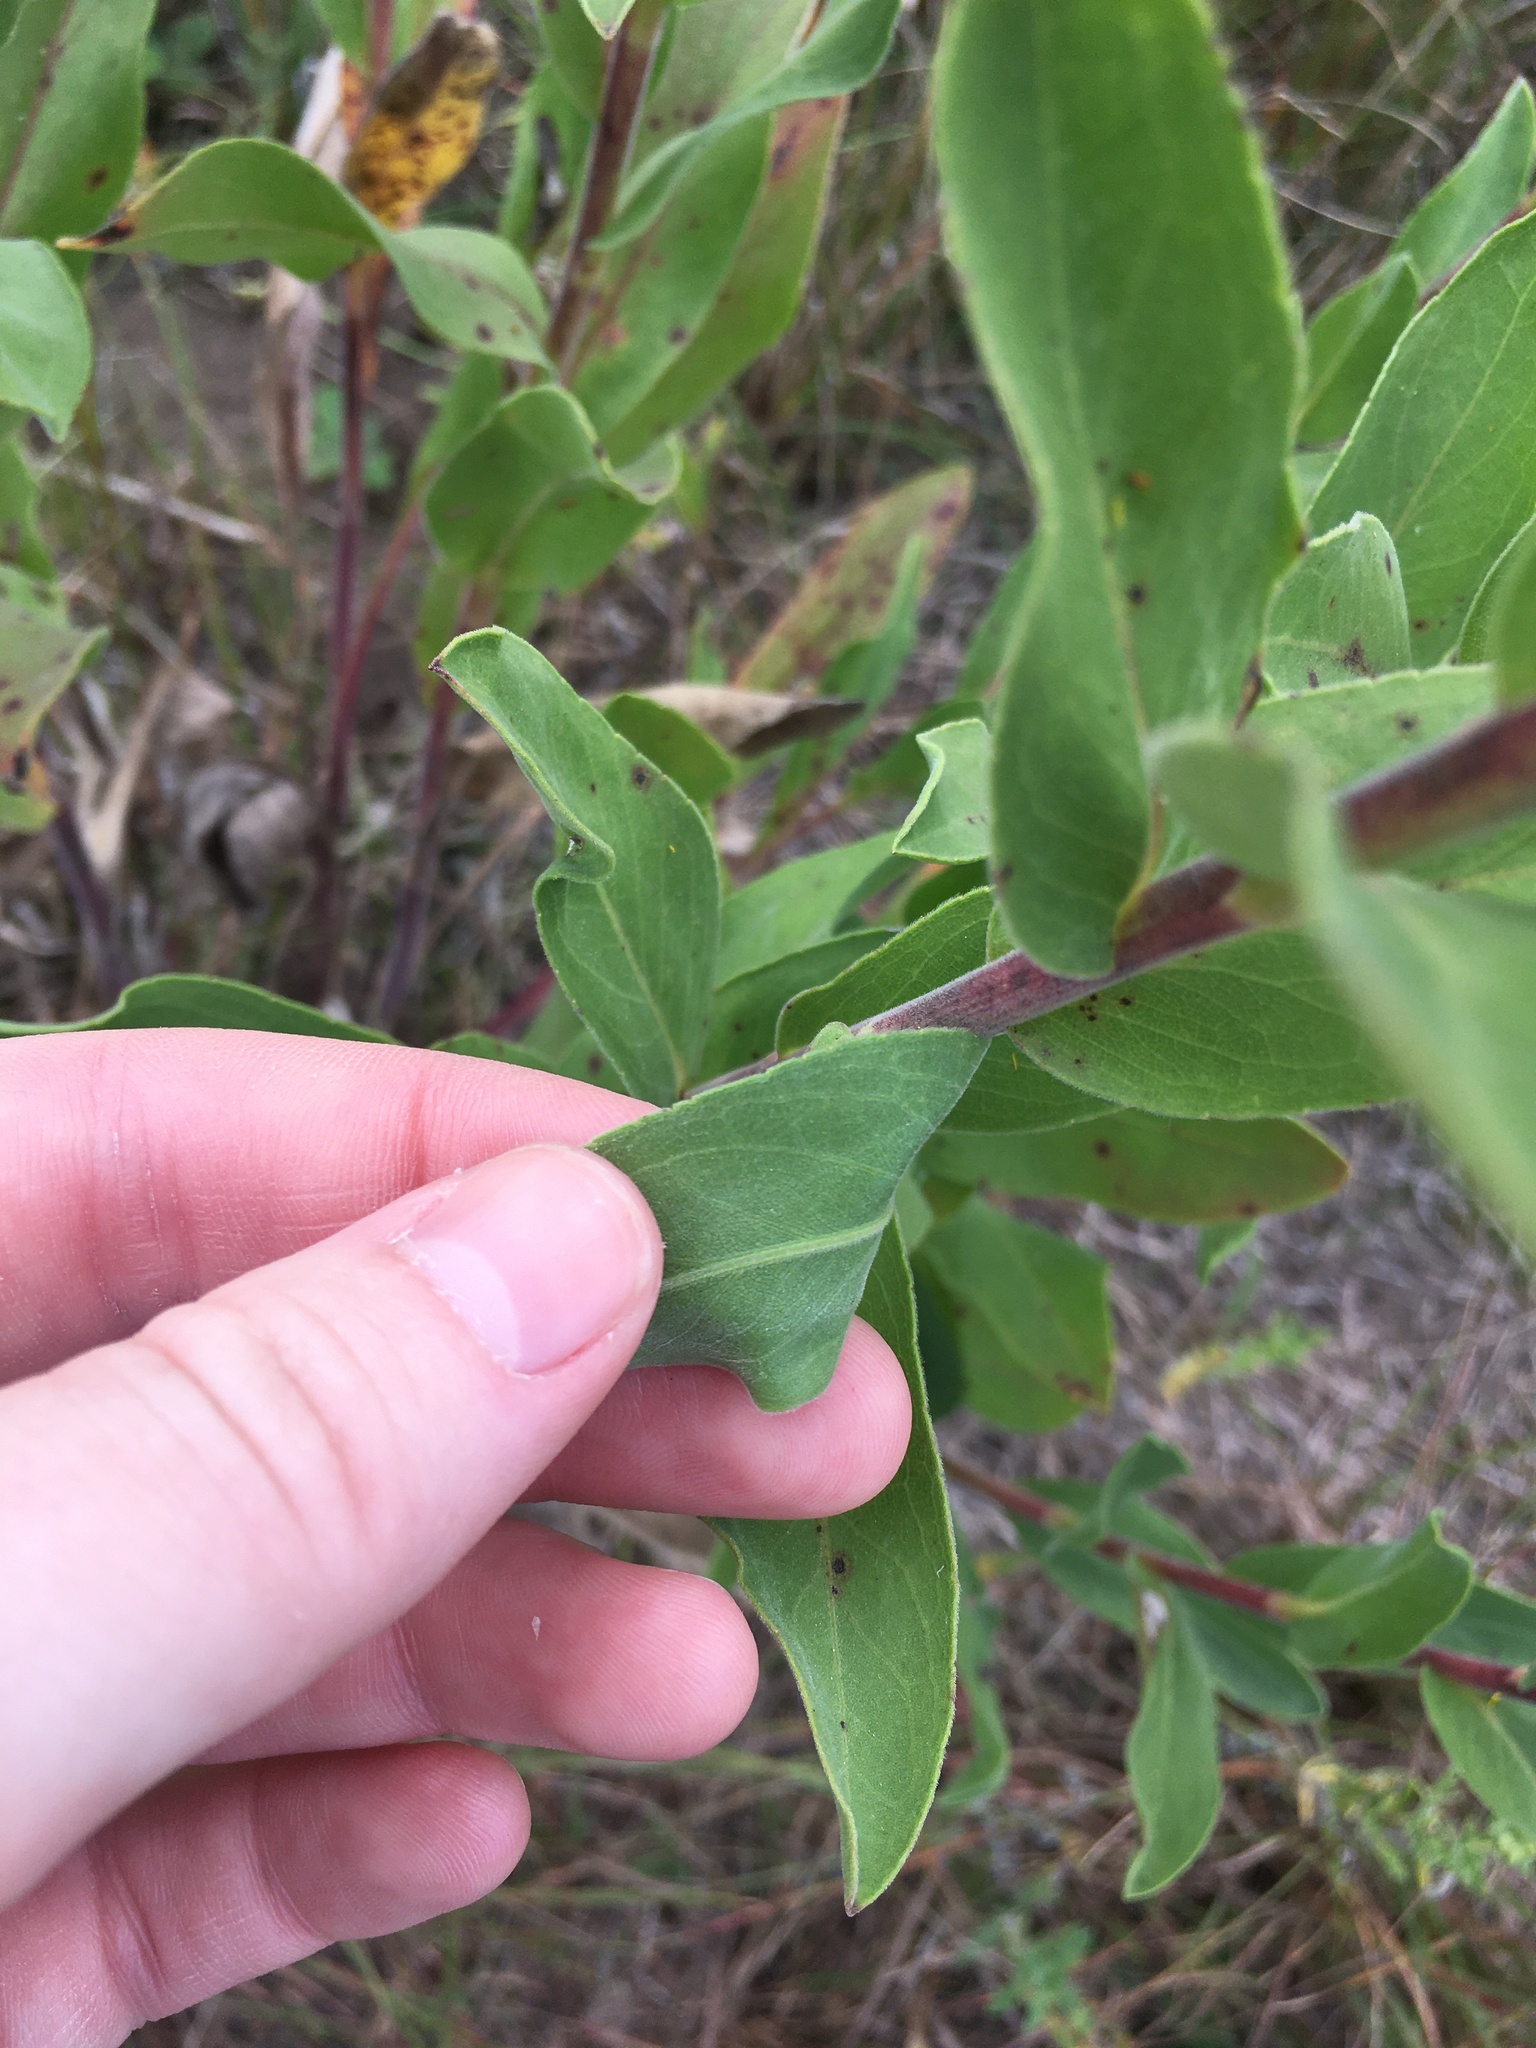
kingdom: Plantae
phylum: Tracheophyta
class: Magnoliopsida
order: Asterales
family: Asteraceae
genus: Solidago
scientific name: Solidago rigida
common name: Rigid goldenrod
